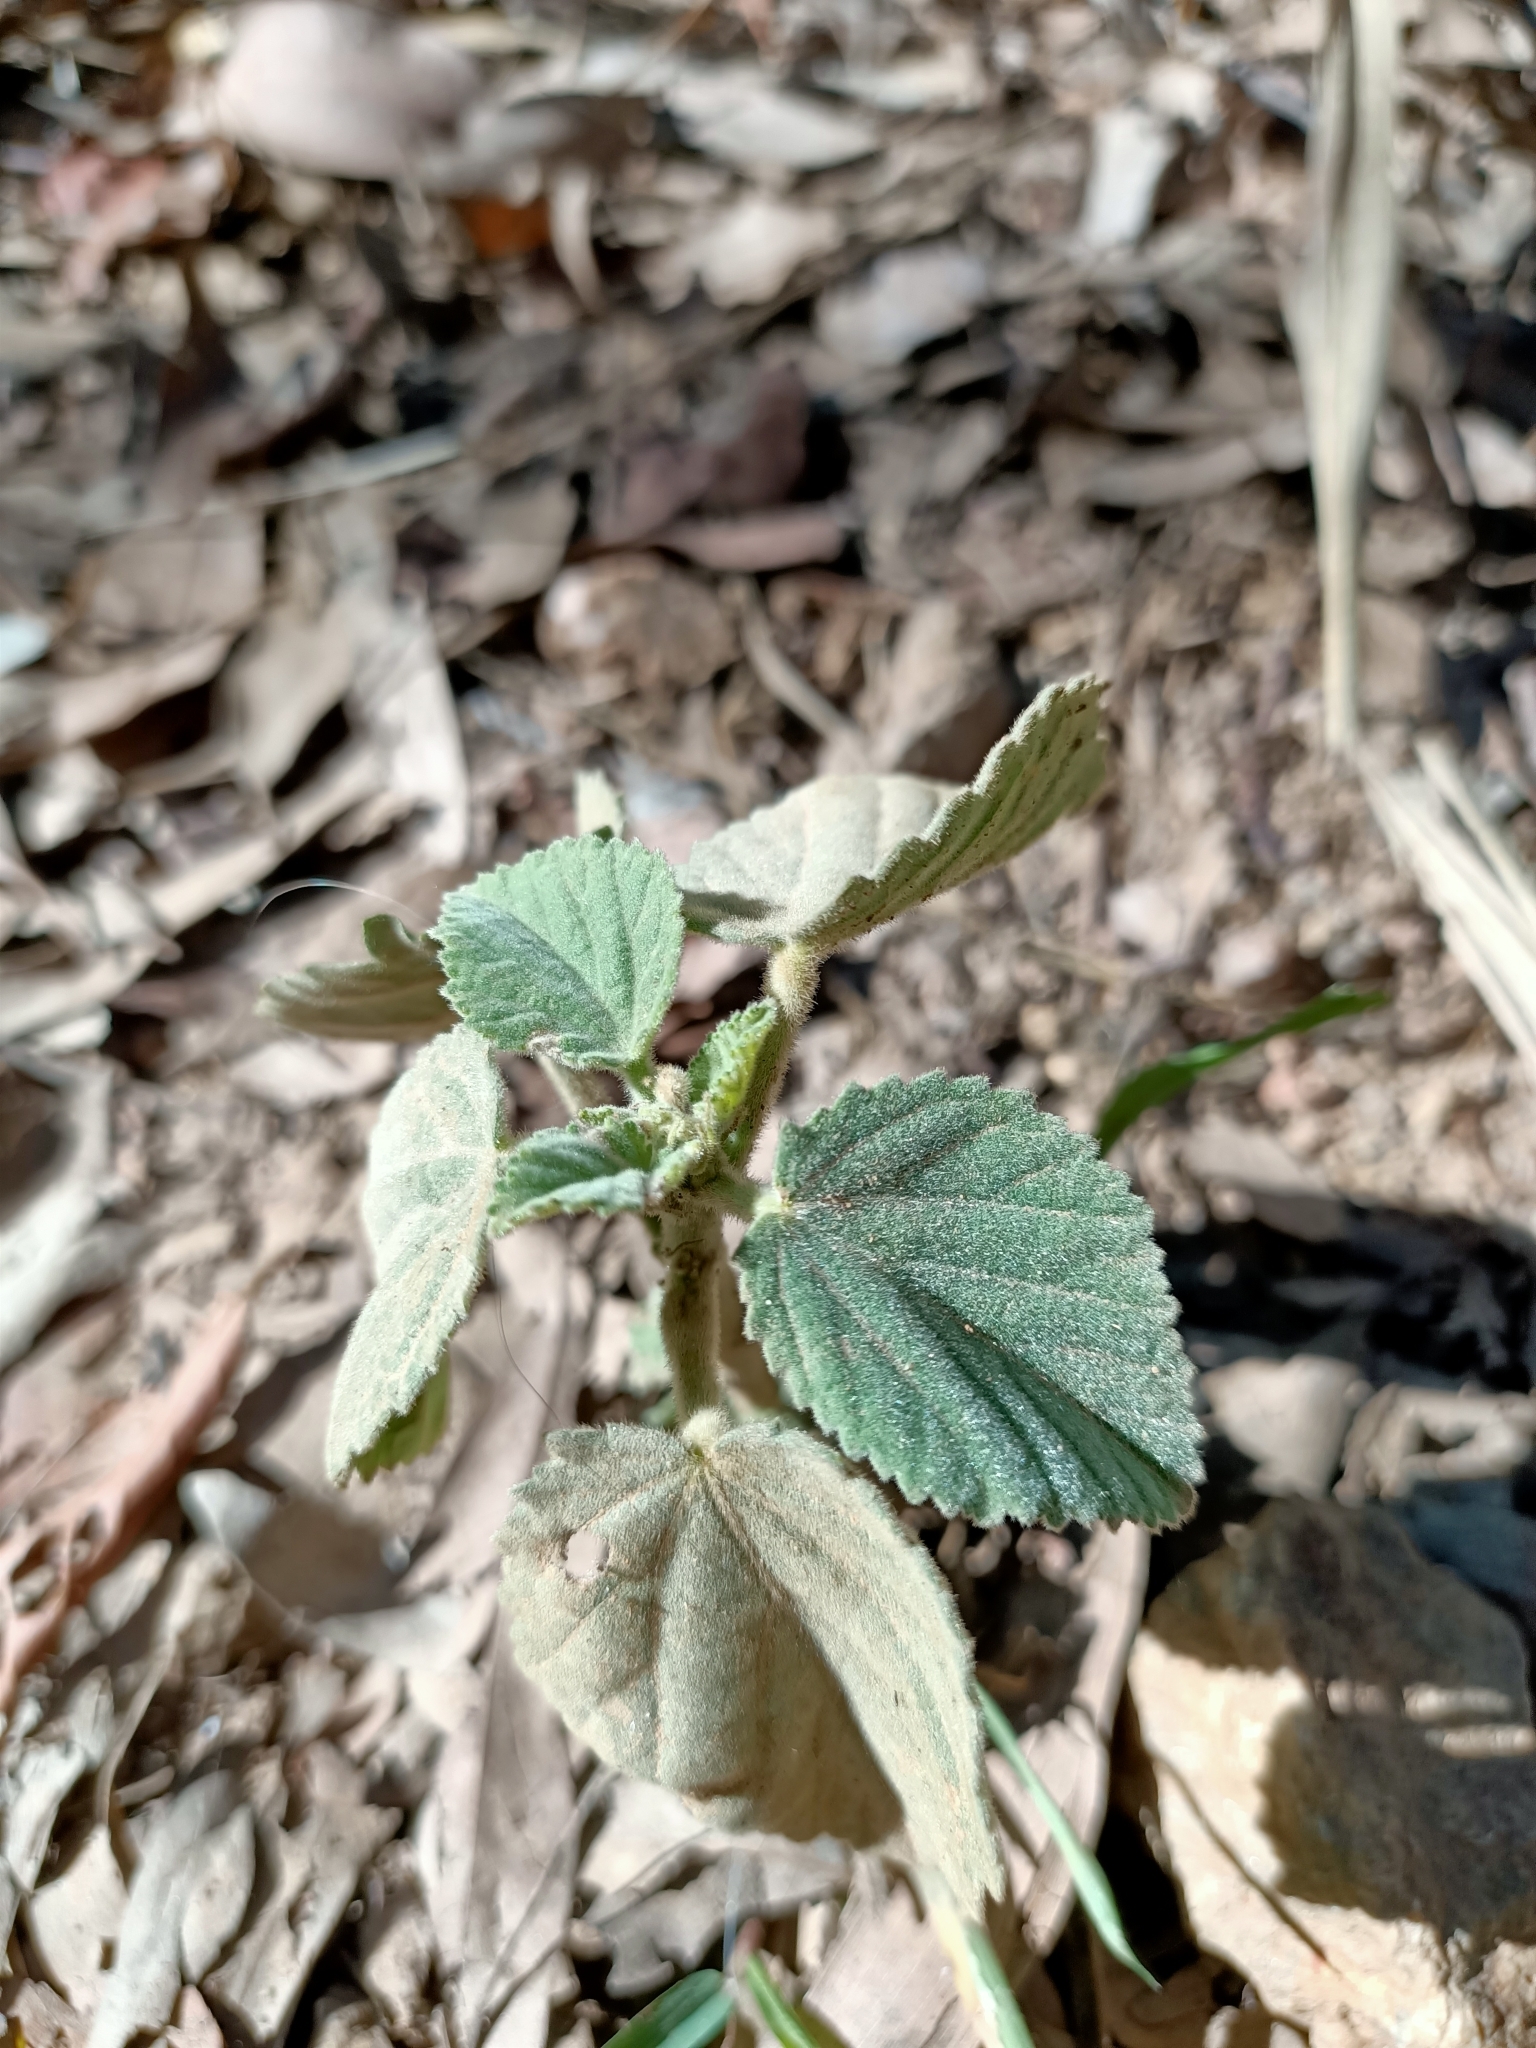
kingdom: Plantae
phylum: Tracheophyta
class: Magnoliopsida
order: Malvales
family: Malvaceae
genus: Sida
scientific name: Sida cordifolia
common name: Ilima
